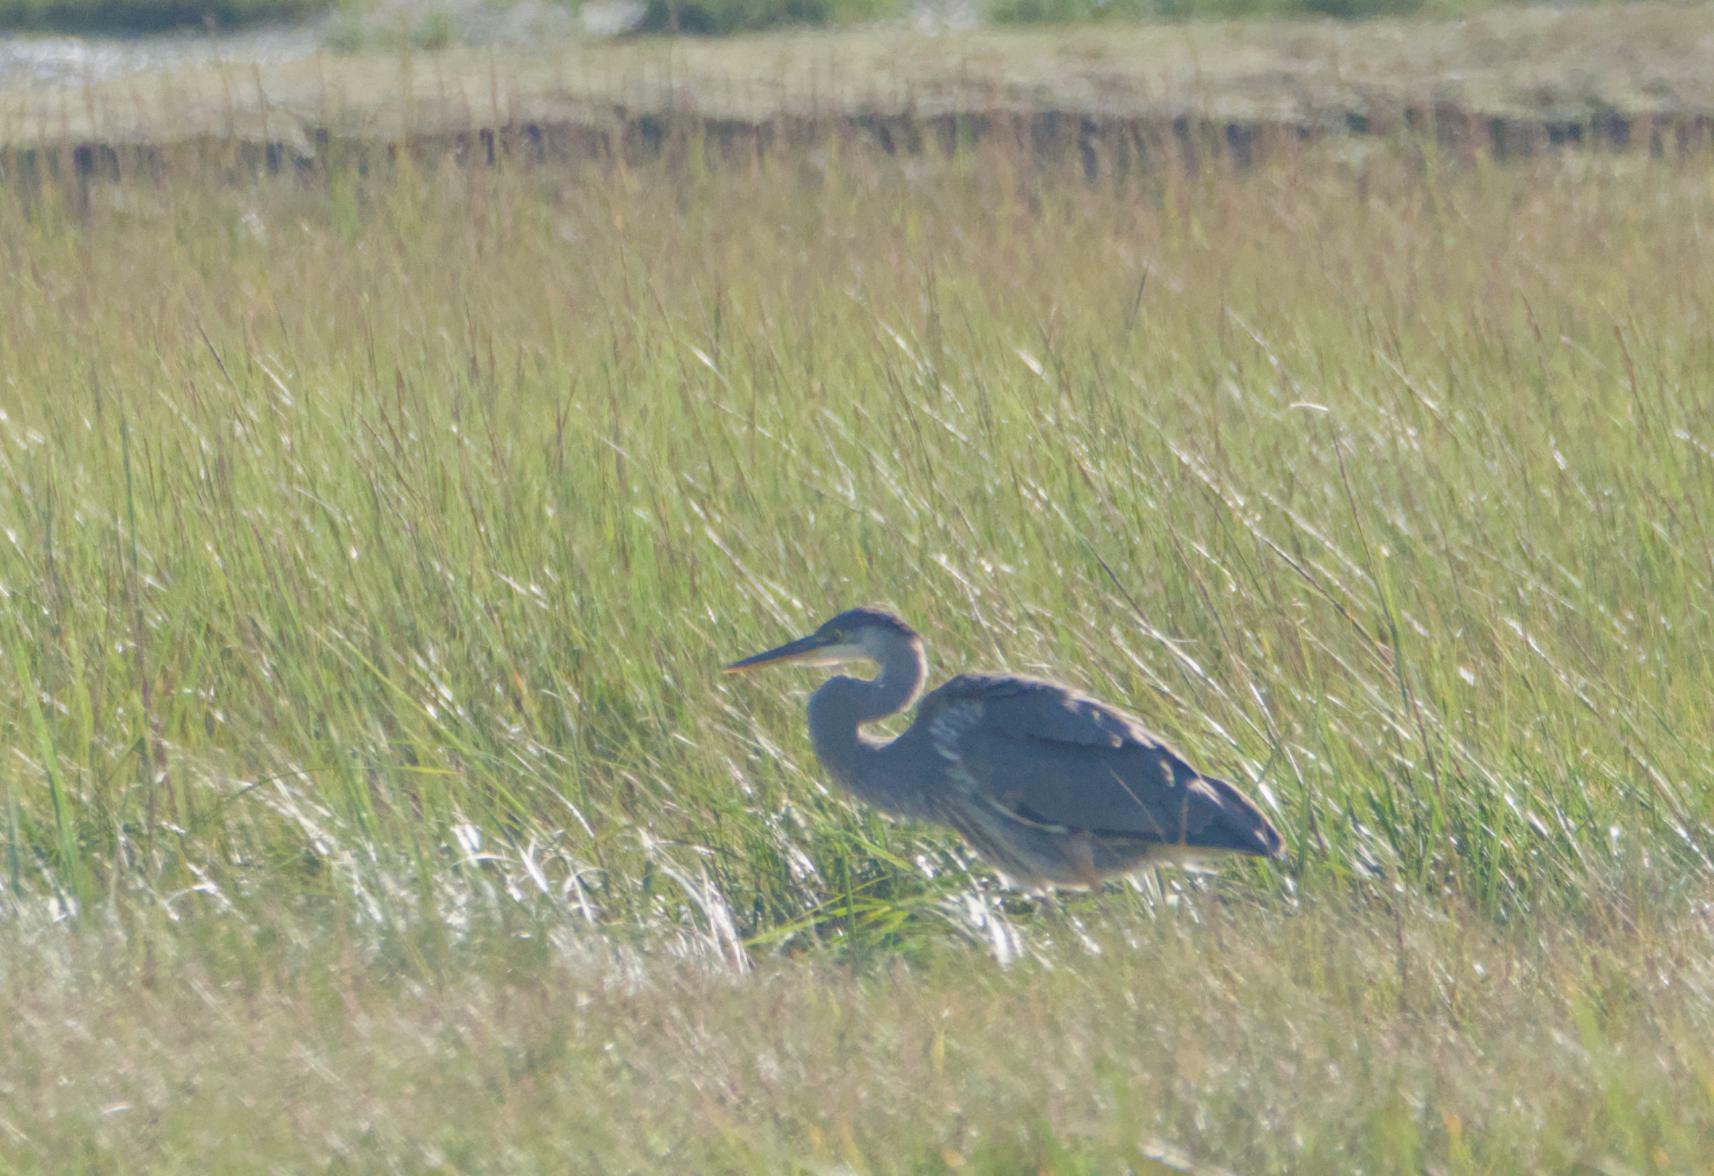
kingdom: Animalia
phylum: Chordata
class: Aves
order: Pelecaniformes
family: Ardeidae
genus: Ardea
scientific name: Ardea herodias
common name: Great blue heron
